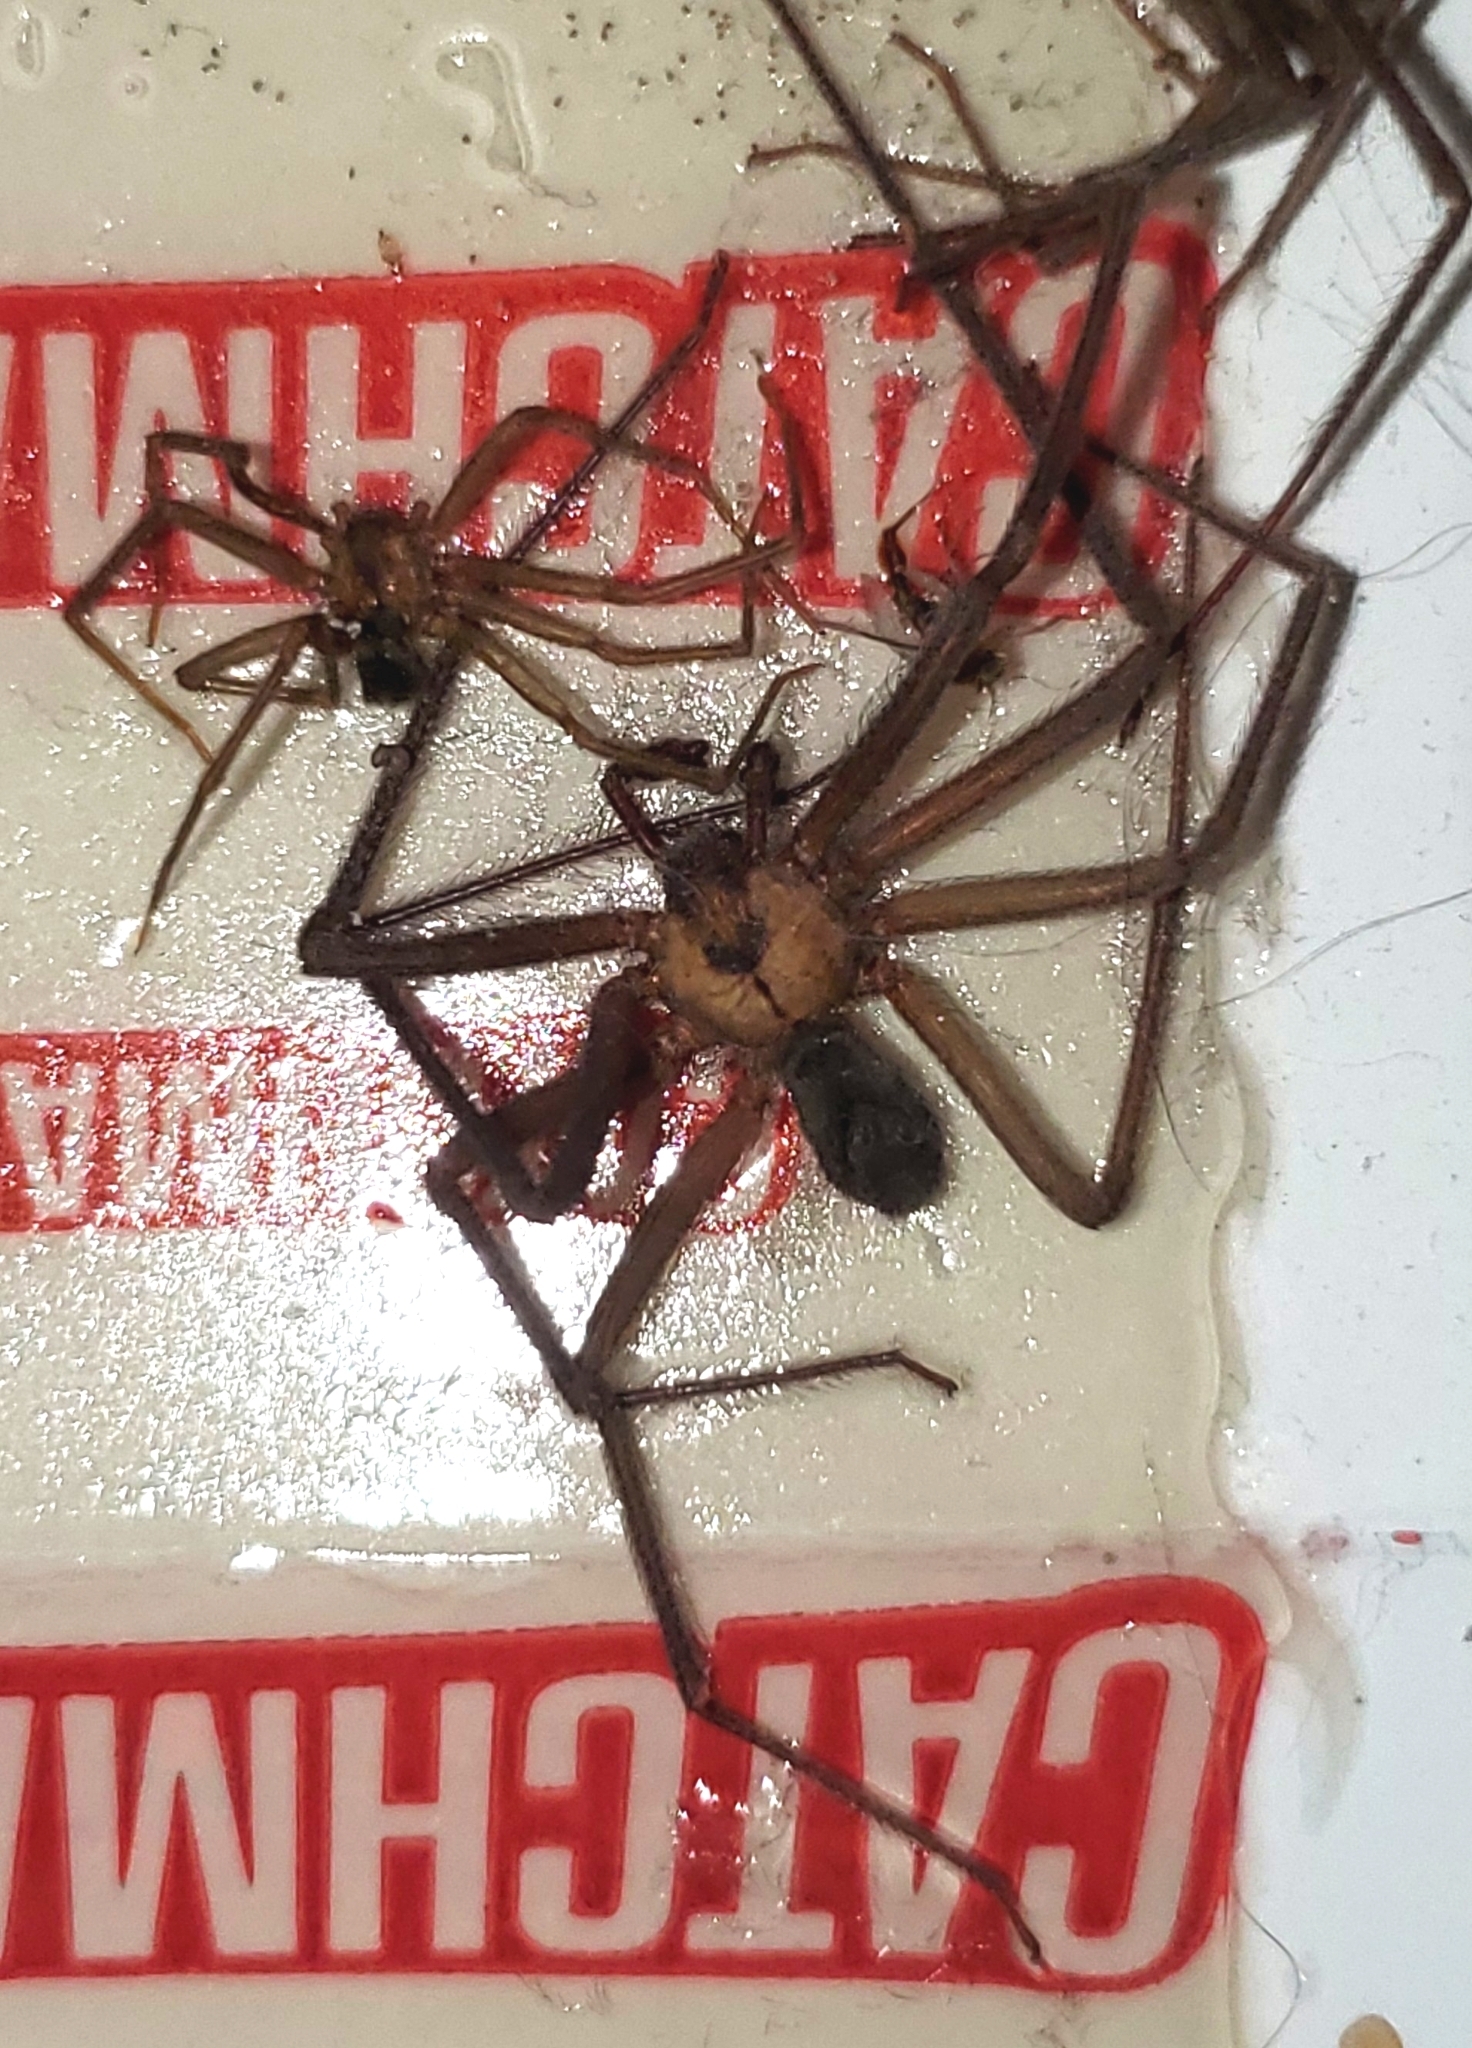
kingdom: Animalia
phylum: Arthropoda
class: Arachnida
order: Araneae
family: Sicariidae
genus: Loxosceles
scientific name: Loxosceles reclusa
